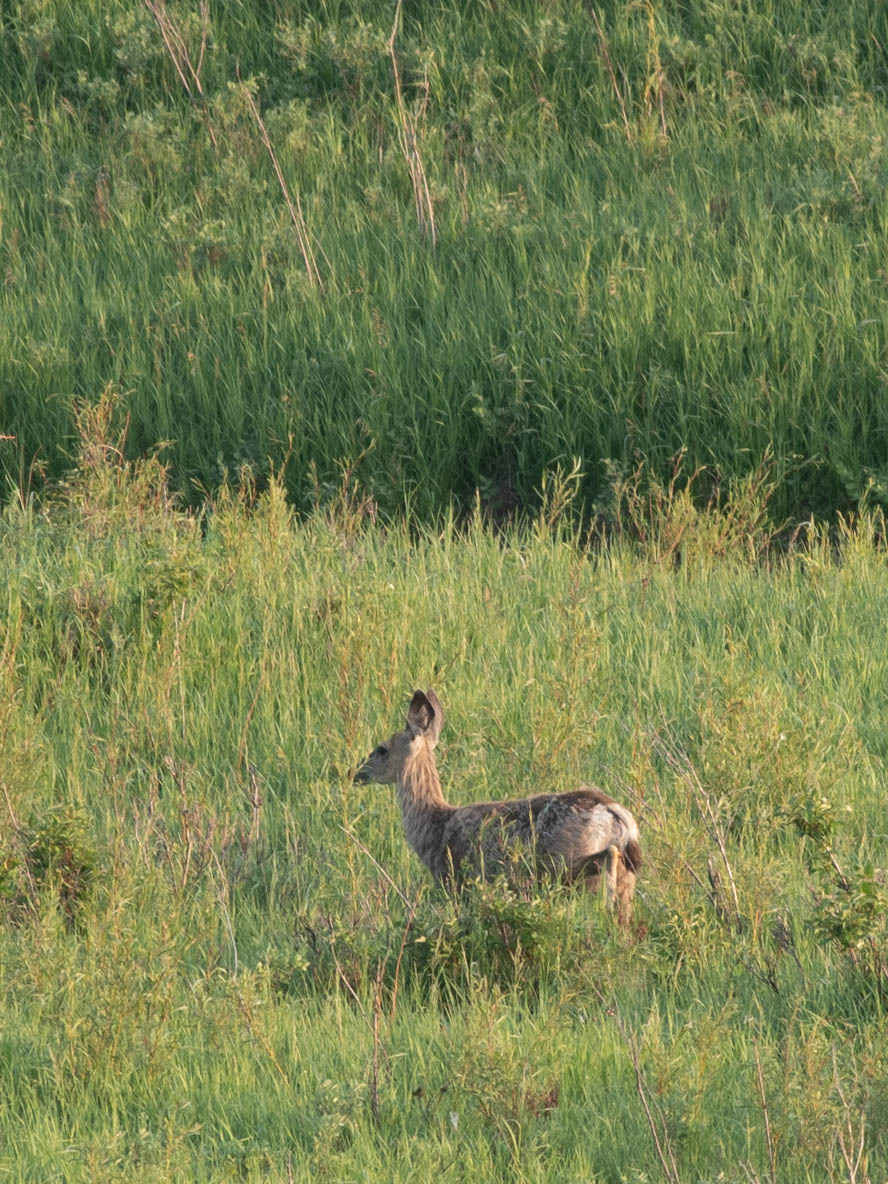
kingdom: Animalia
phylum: Chordata
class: Mammalia
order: Artiodactyla
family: Cervidae
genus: Odocoileus
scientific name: Odocoileus hemionus
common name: Mule deer
